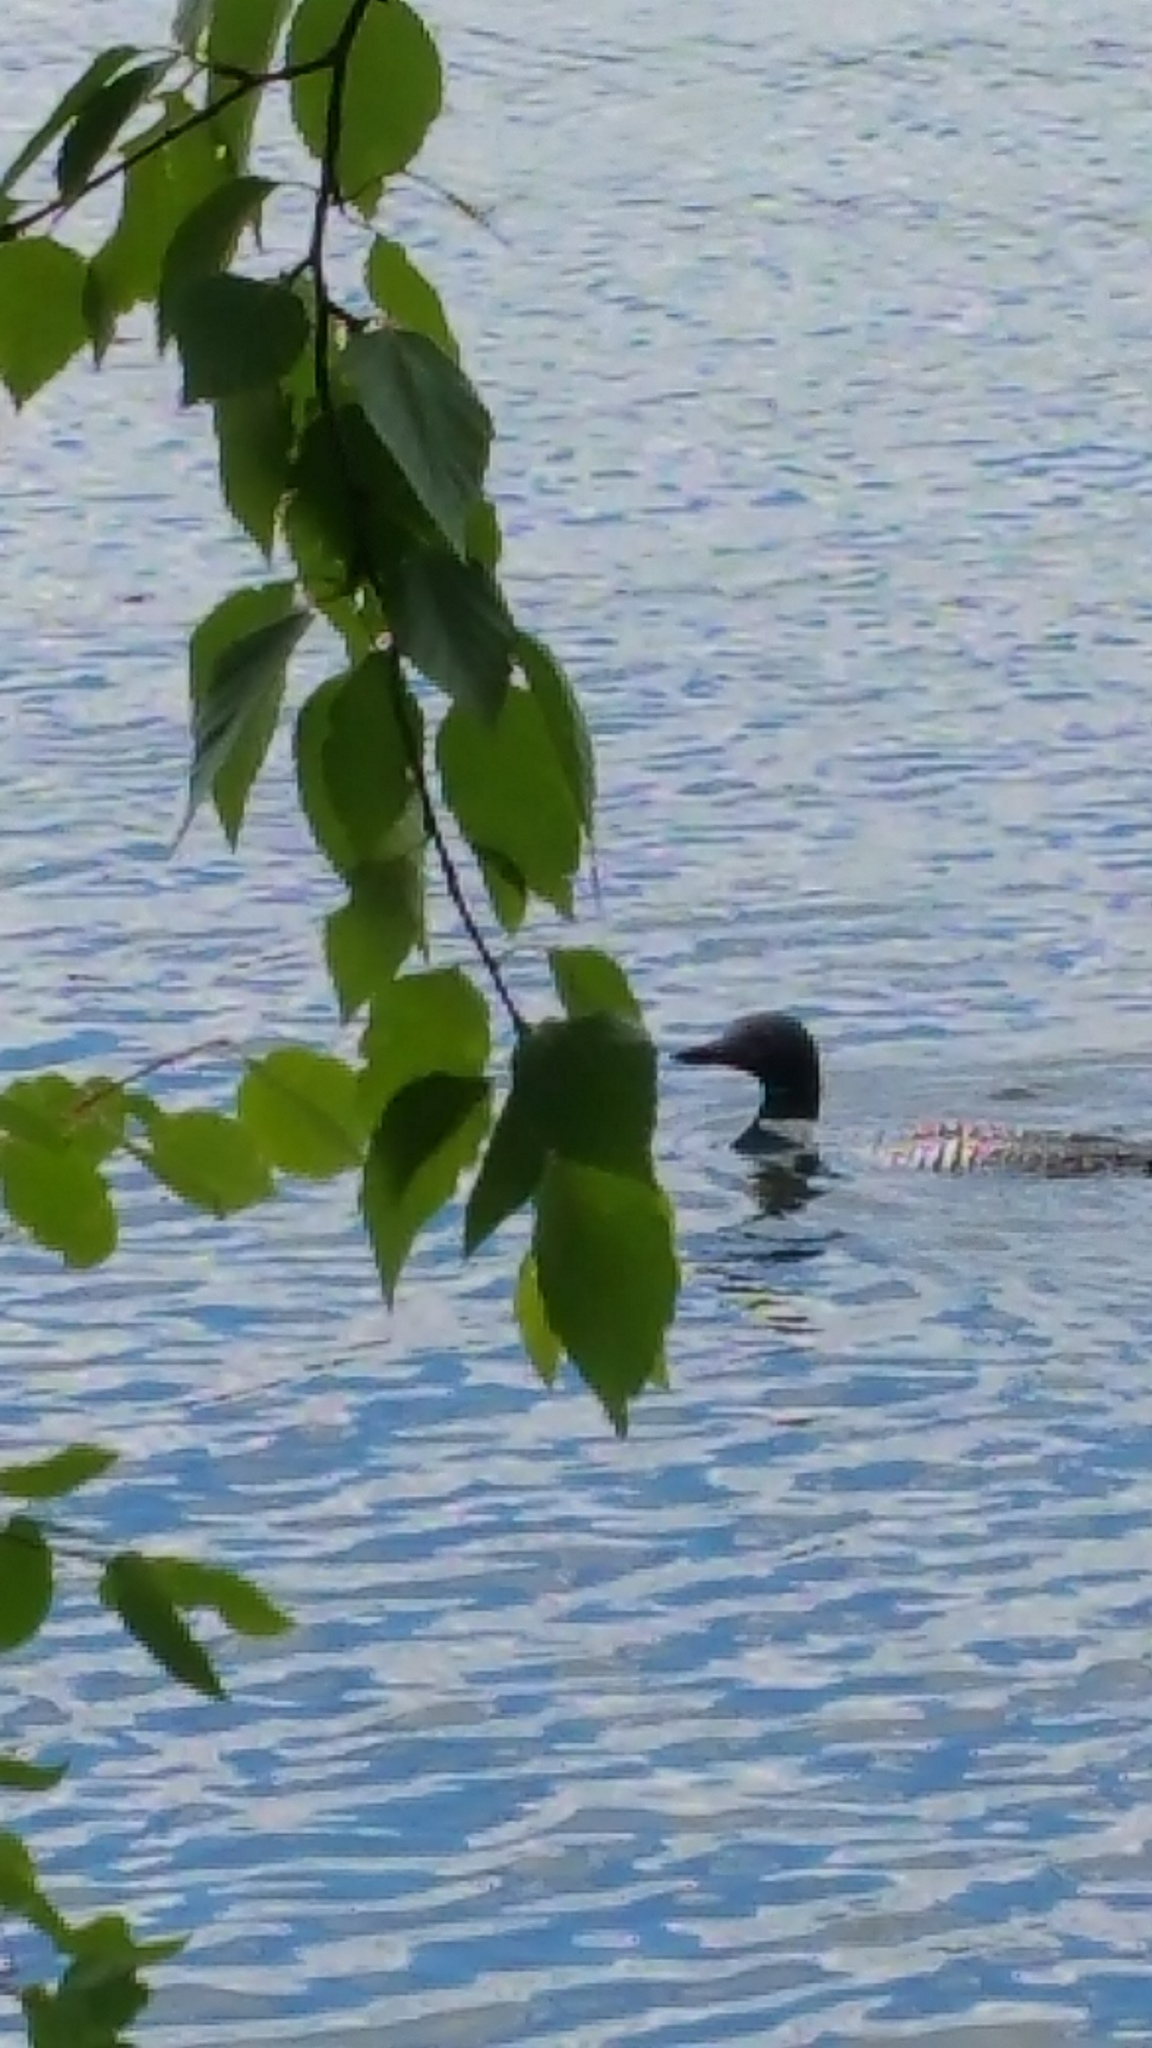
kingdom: Animalia
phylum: Chordata
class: Aves
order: Gaviiformes
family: Gaviidae
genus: Gavia
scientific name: Gavia immer
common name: Common loon
